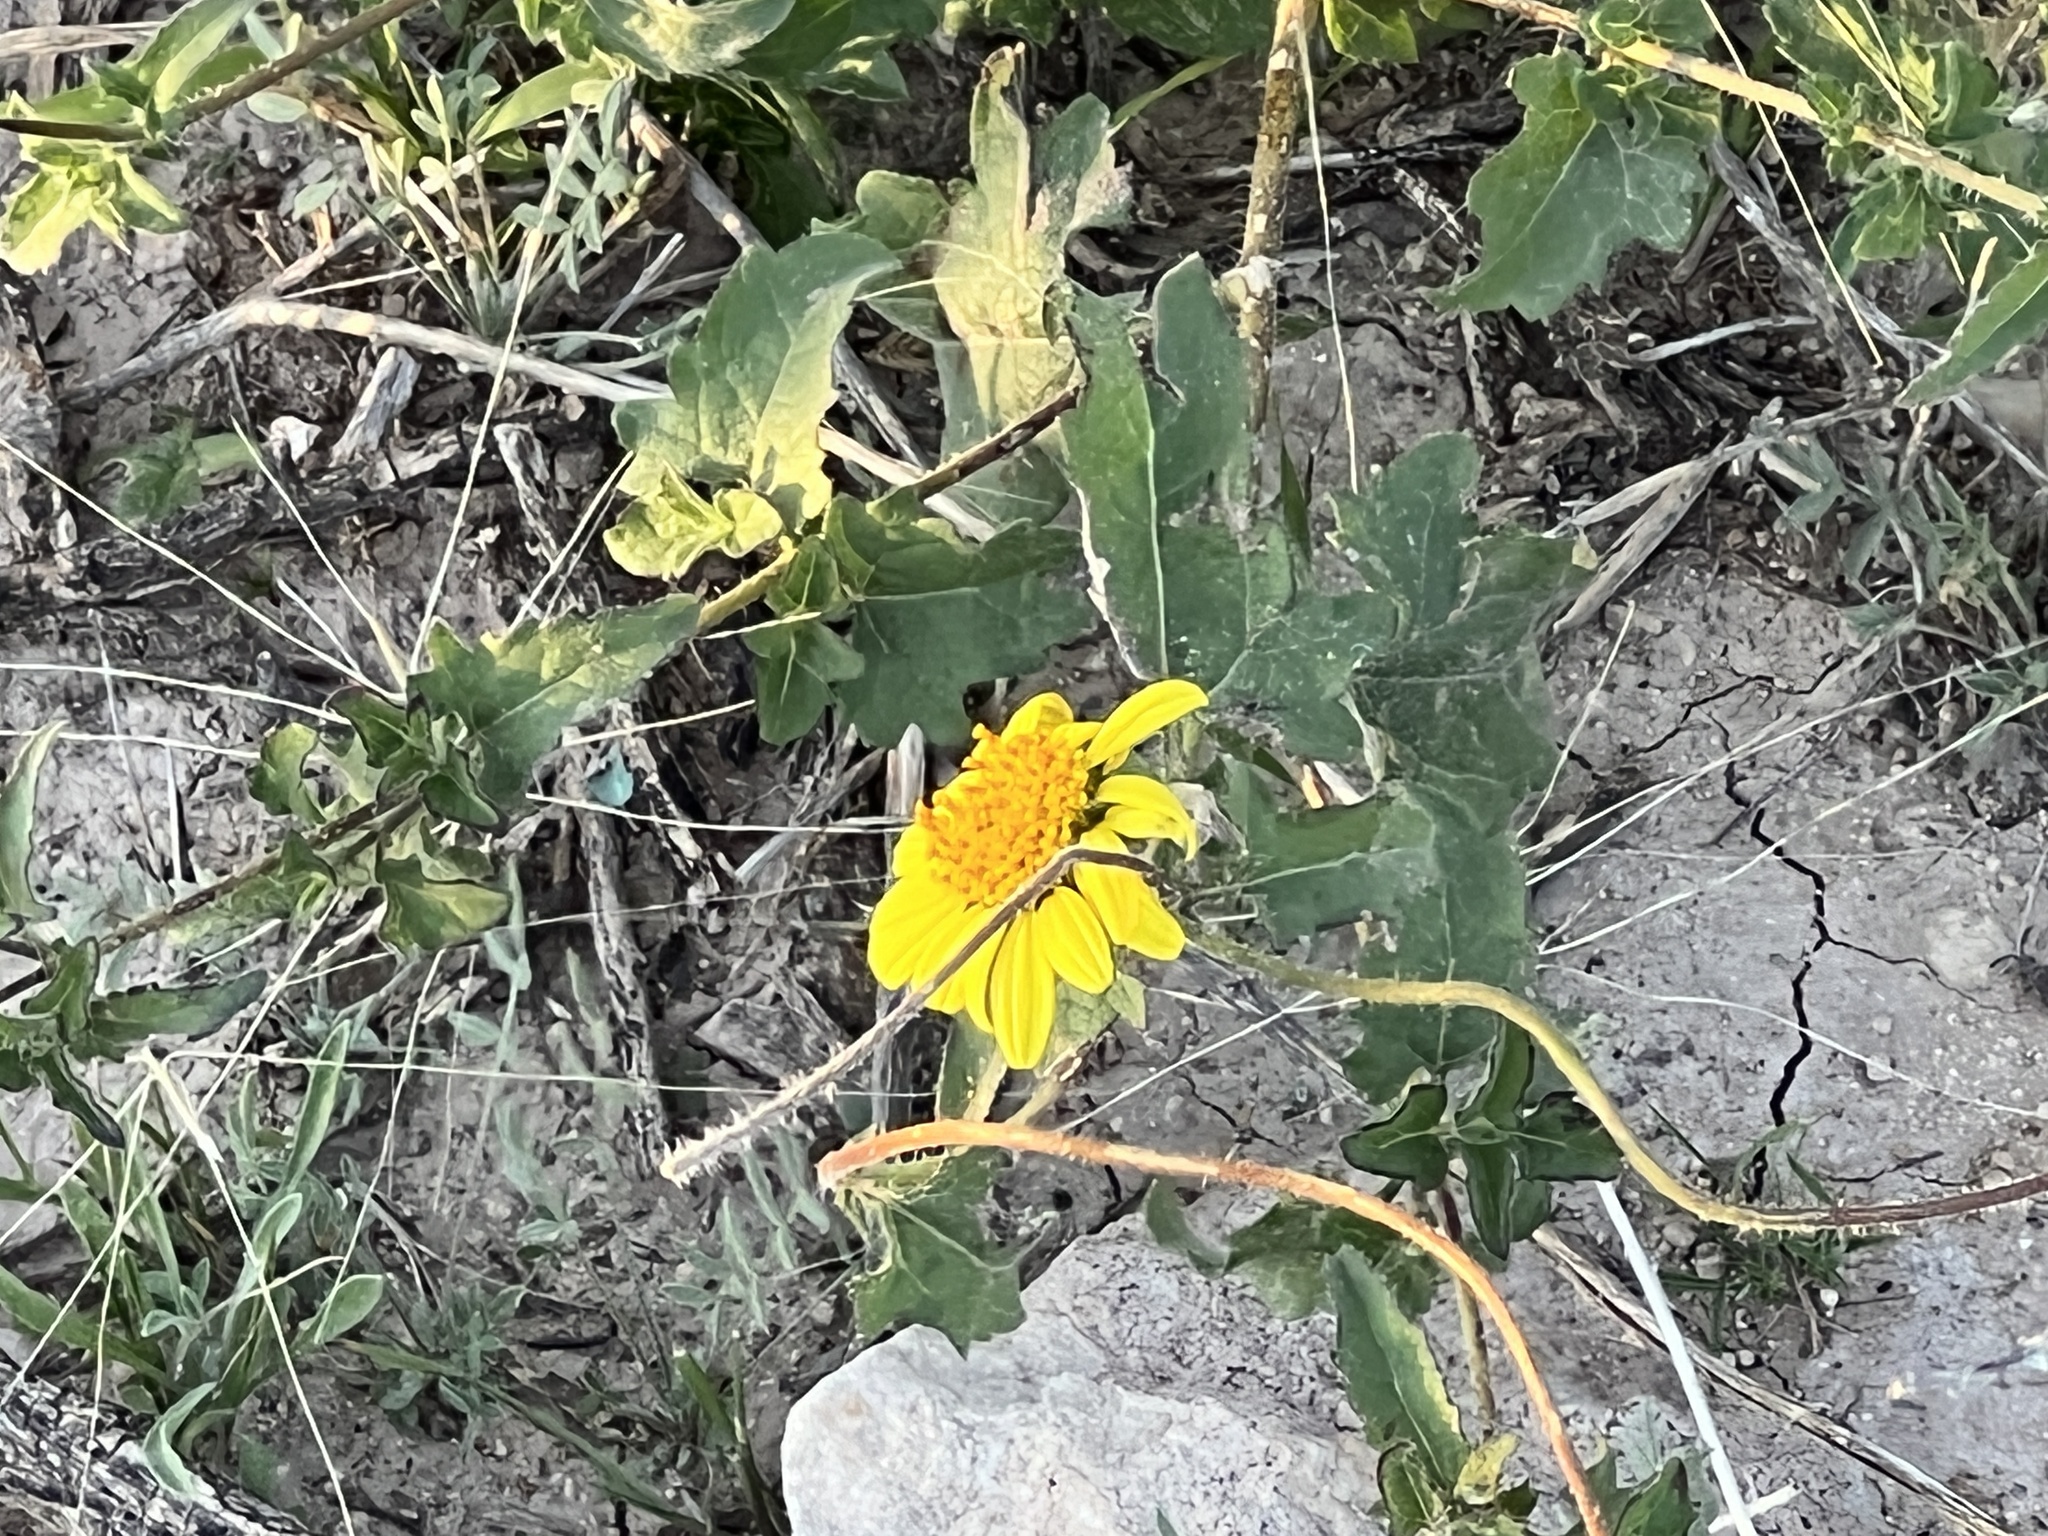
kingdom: Plantae
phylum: Tracheophyta
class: Magnoliopsida
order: Asterales
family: Asteraceae
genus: Simsia
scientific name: Simsia calva
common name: Awnless bush-sunflower
